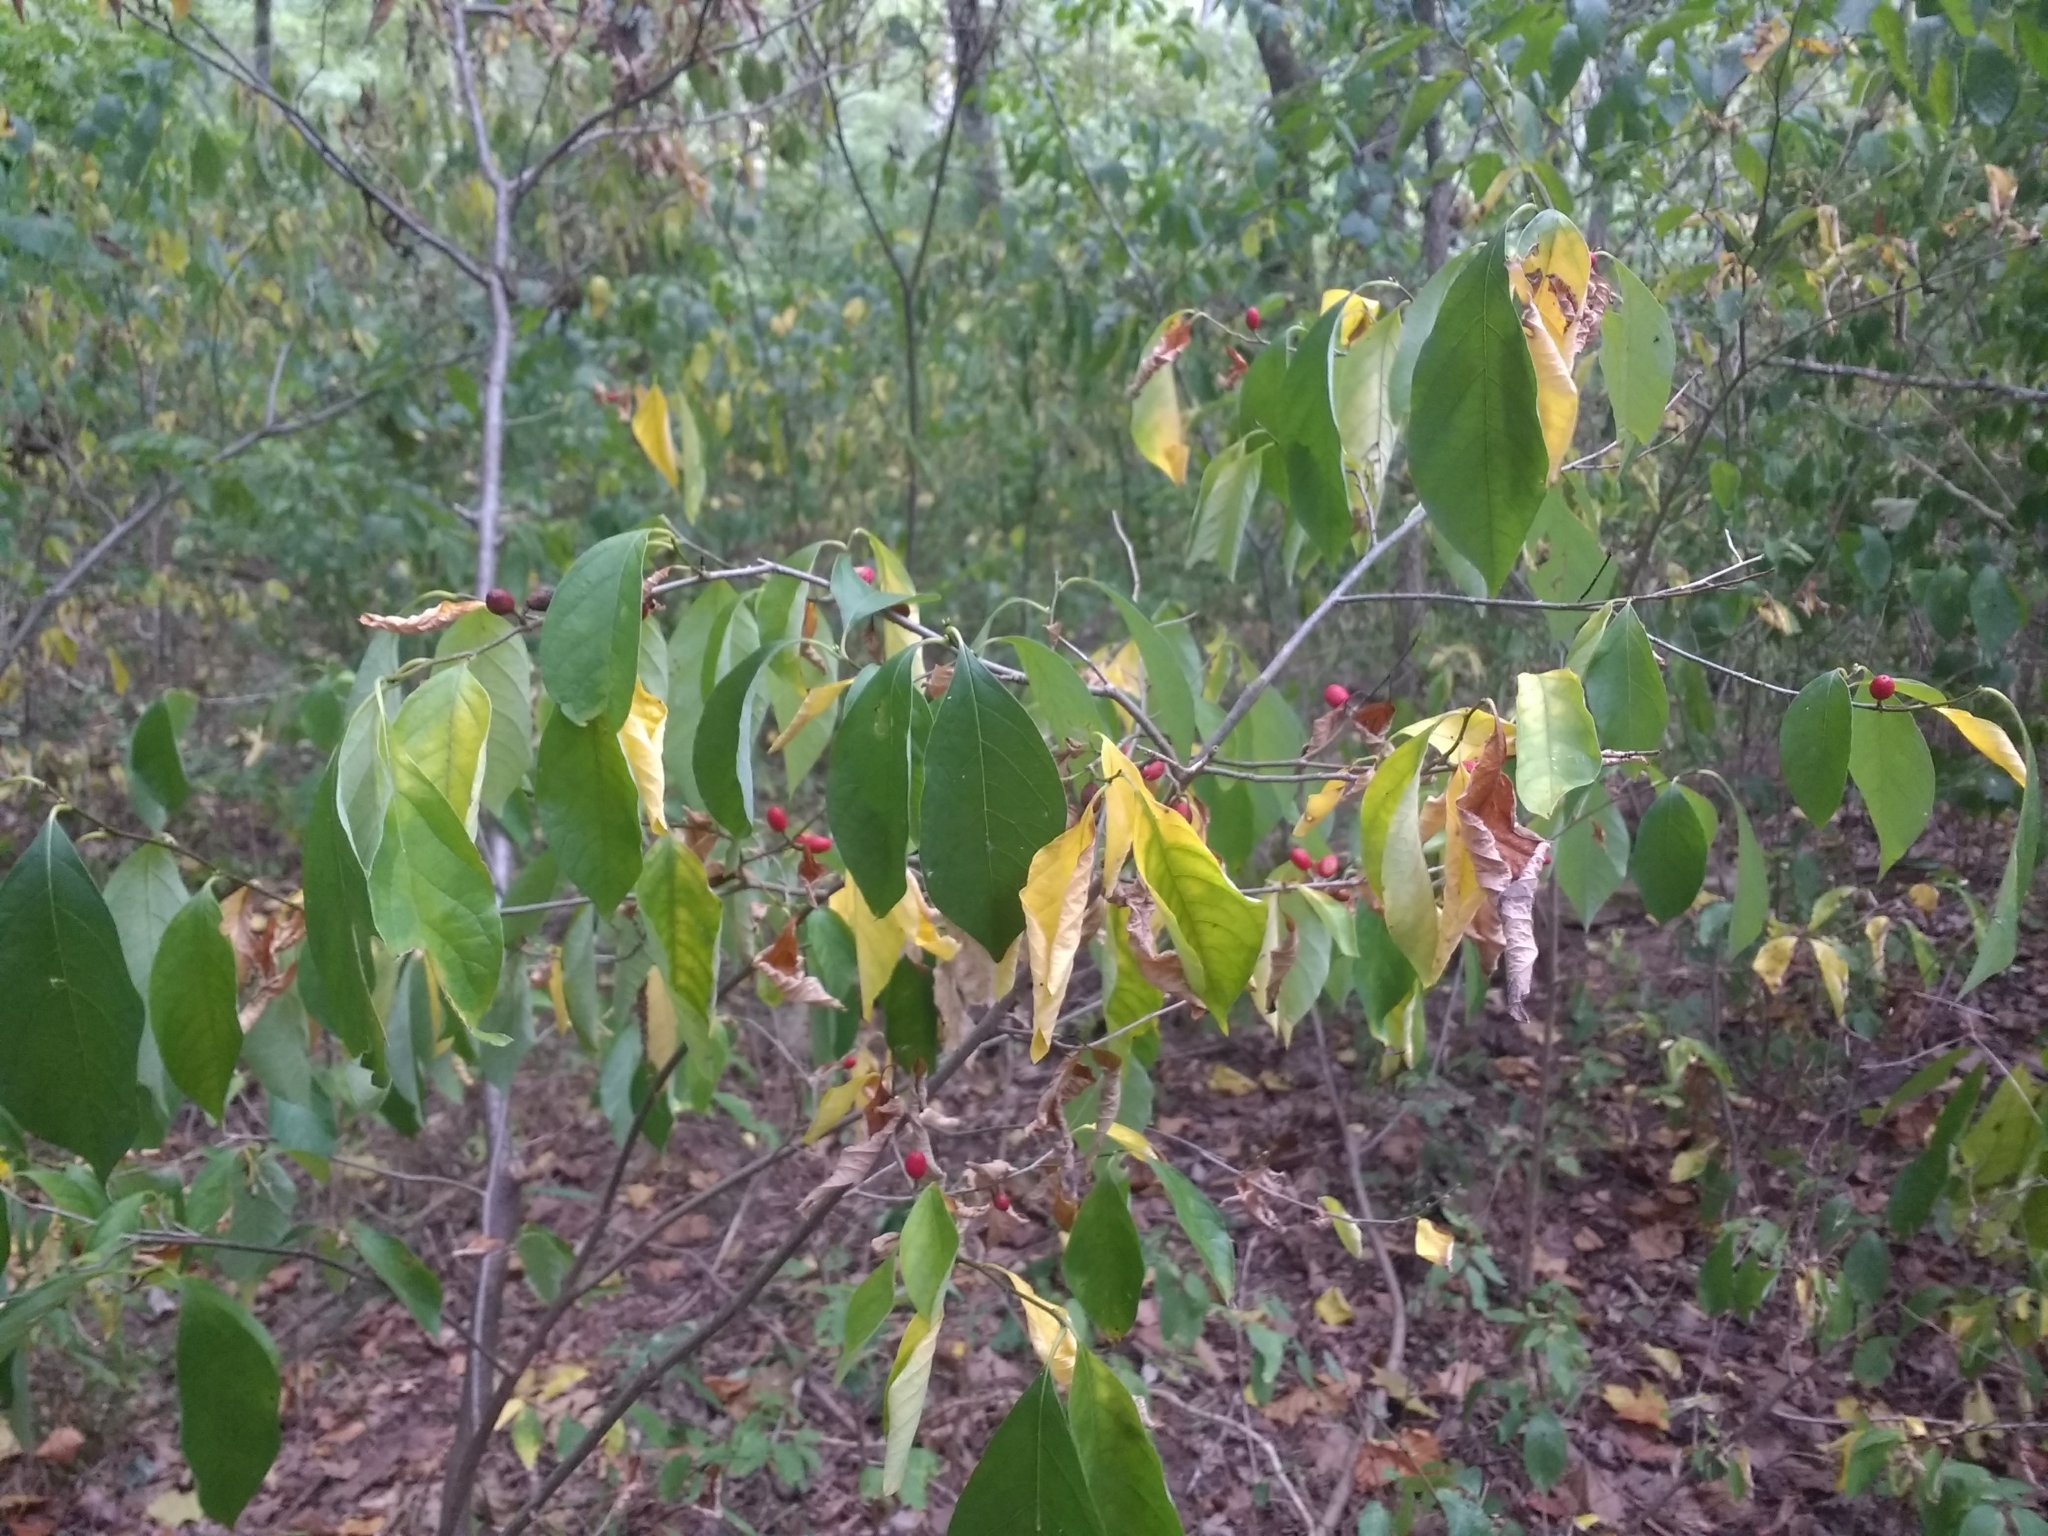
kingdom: Plantae
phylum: Tracheophyta
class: Magnoliopsida
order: Laurales
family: Lauraceae
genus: Lindera
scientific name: Lindera benzoin
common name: Spicebush
